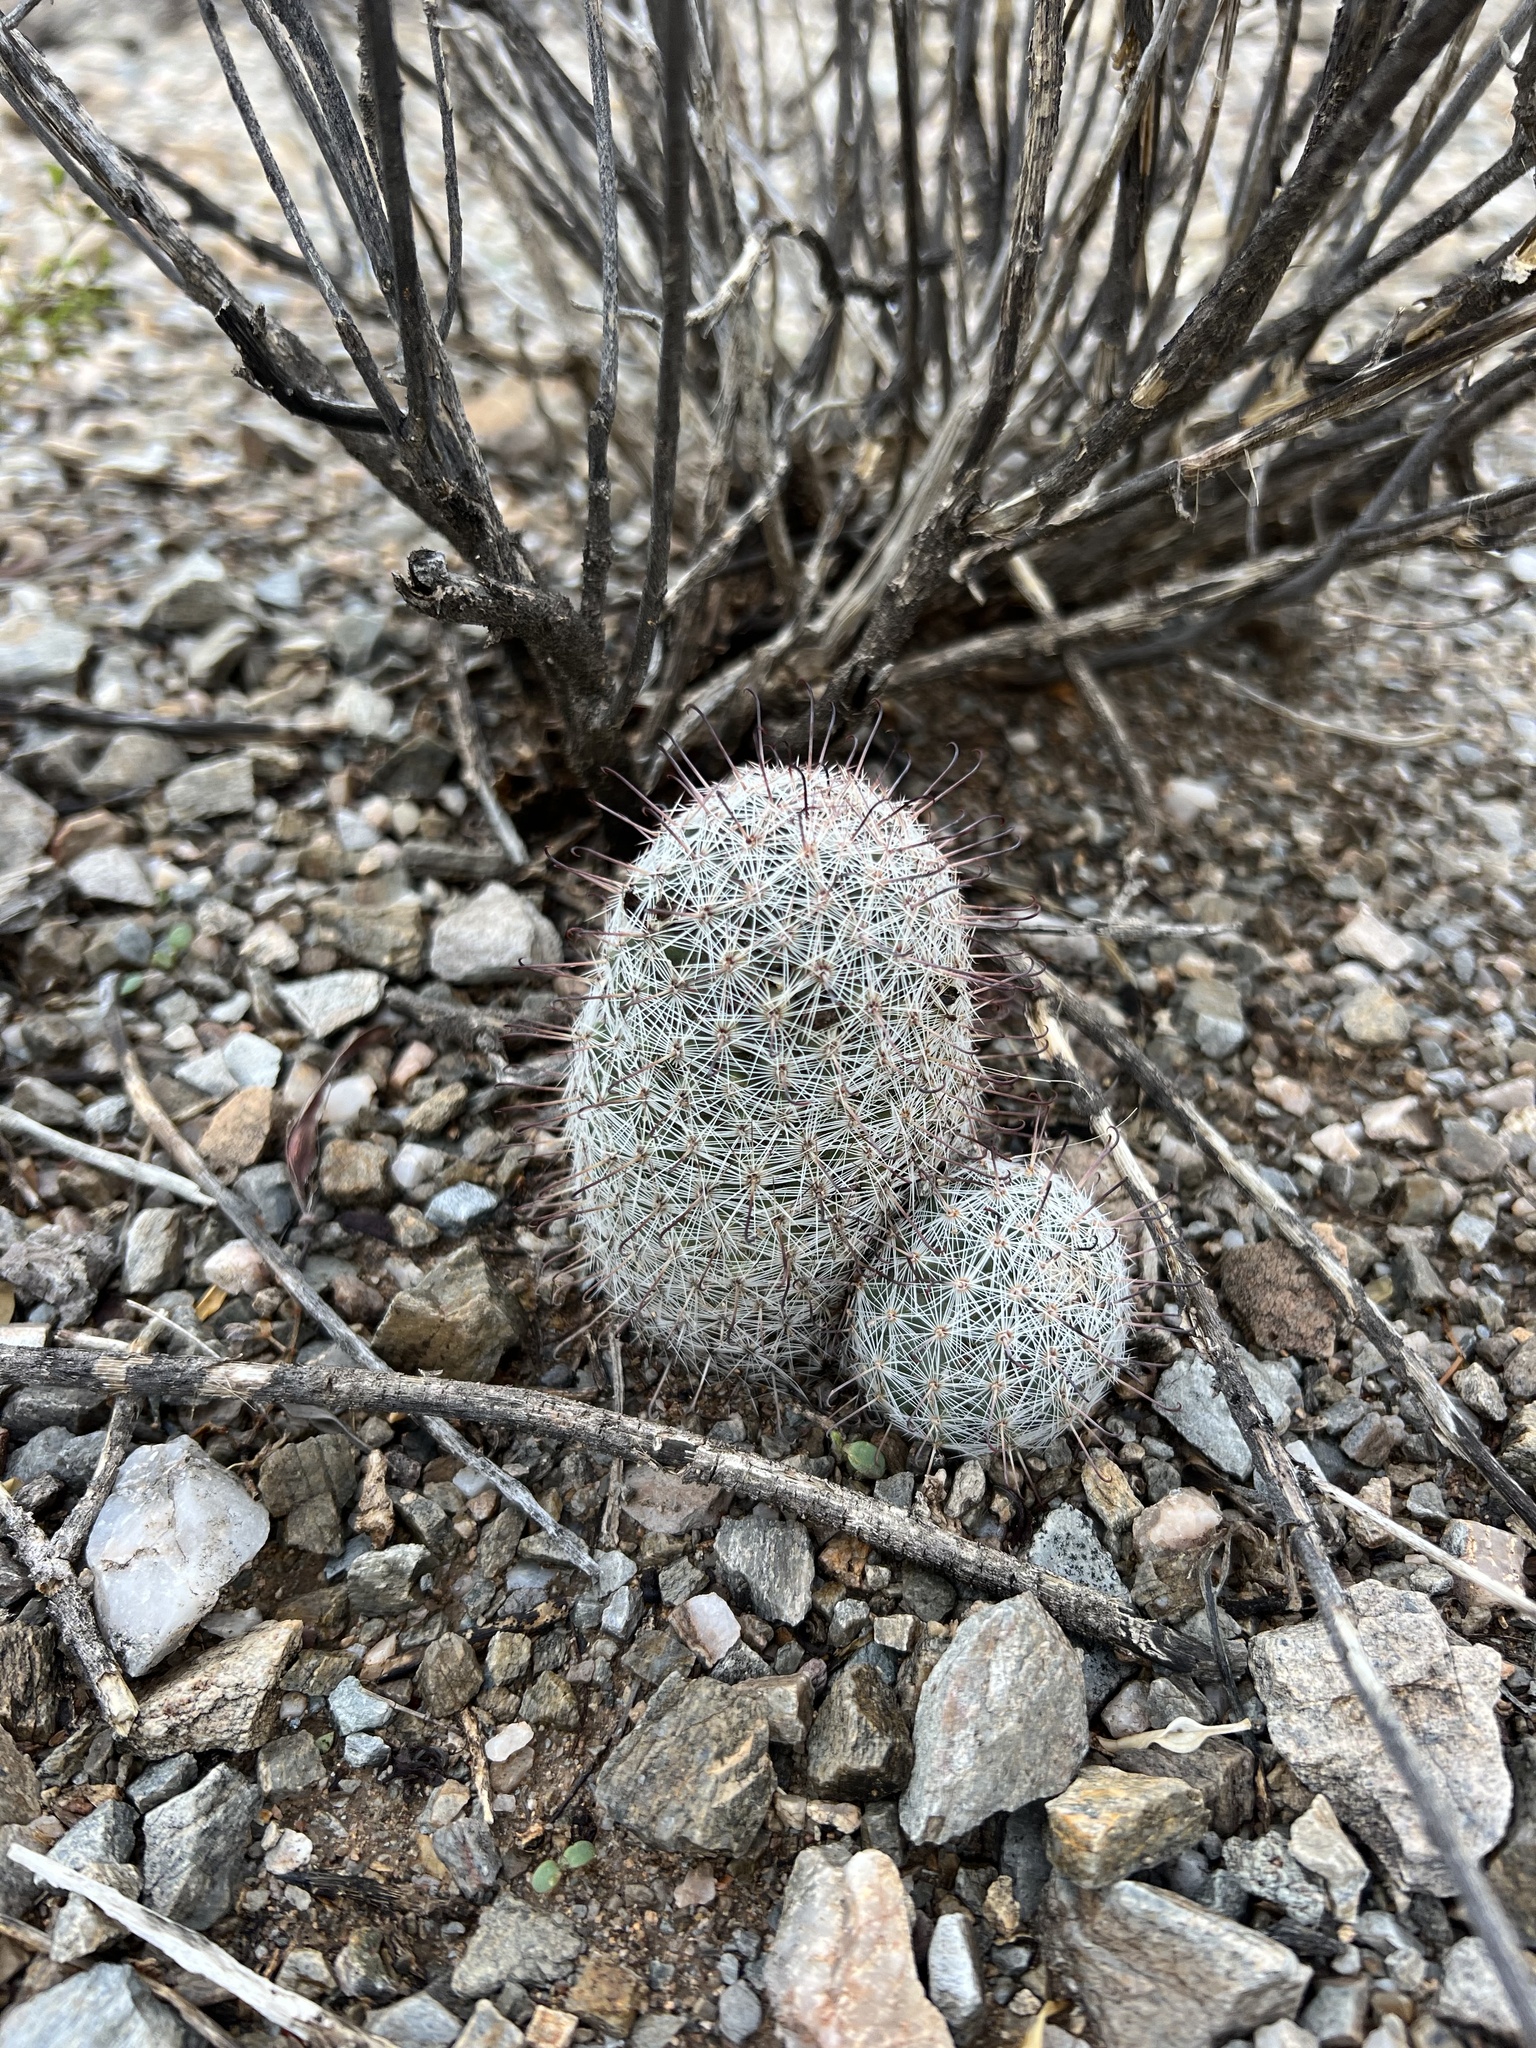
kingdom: Plantae
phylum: Tracheophyta
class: Magnoliopsida
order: Caryophyllales
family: Cactaceae
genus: Cochemiea
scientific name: Cochemiea grahamii
